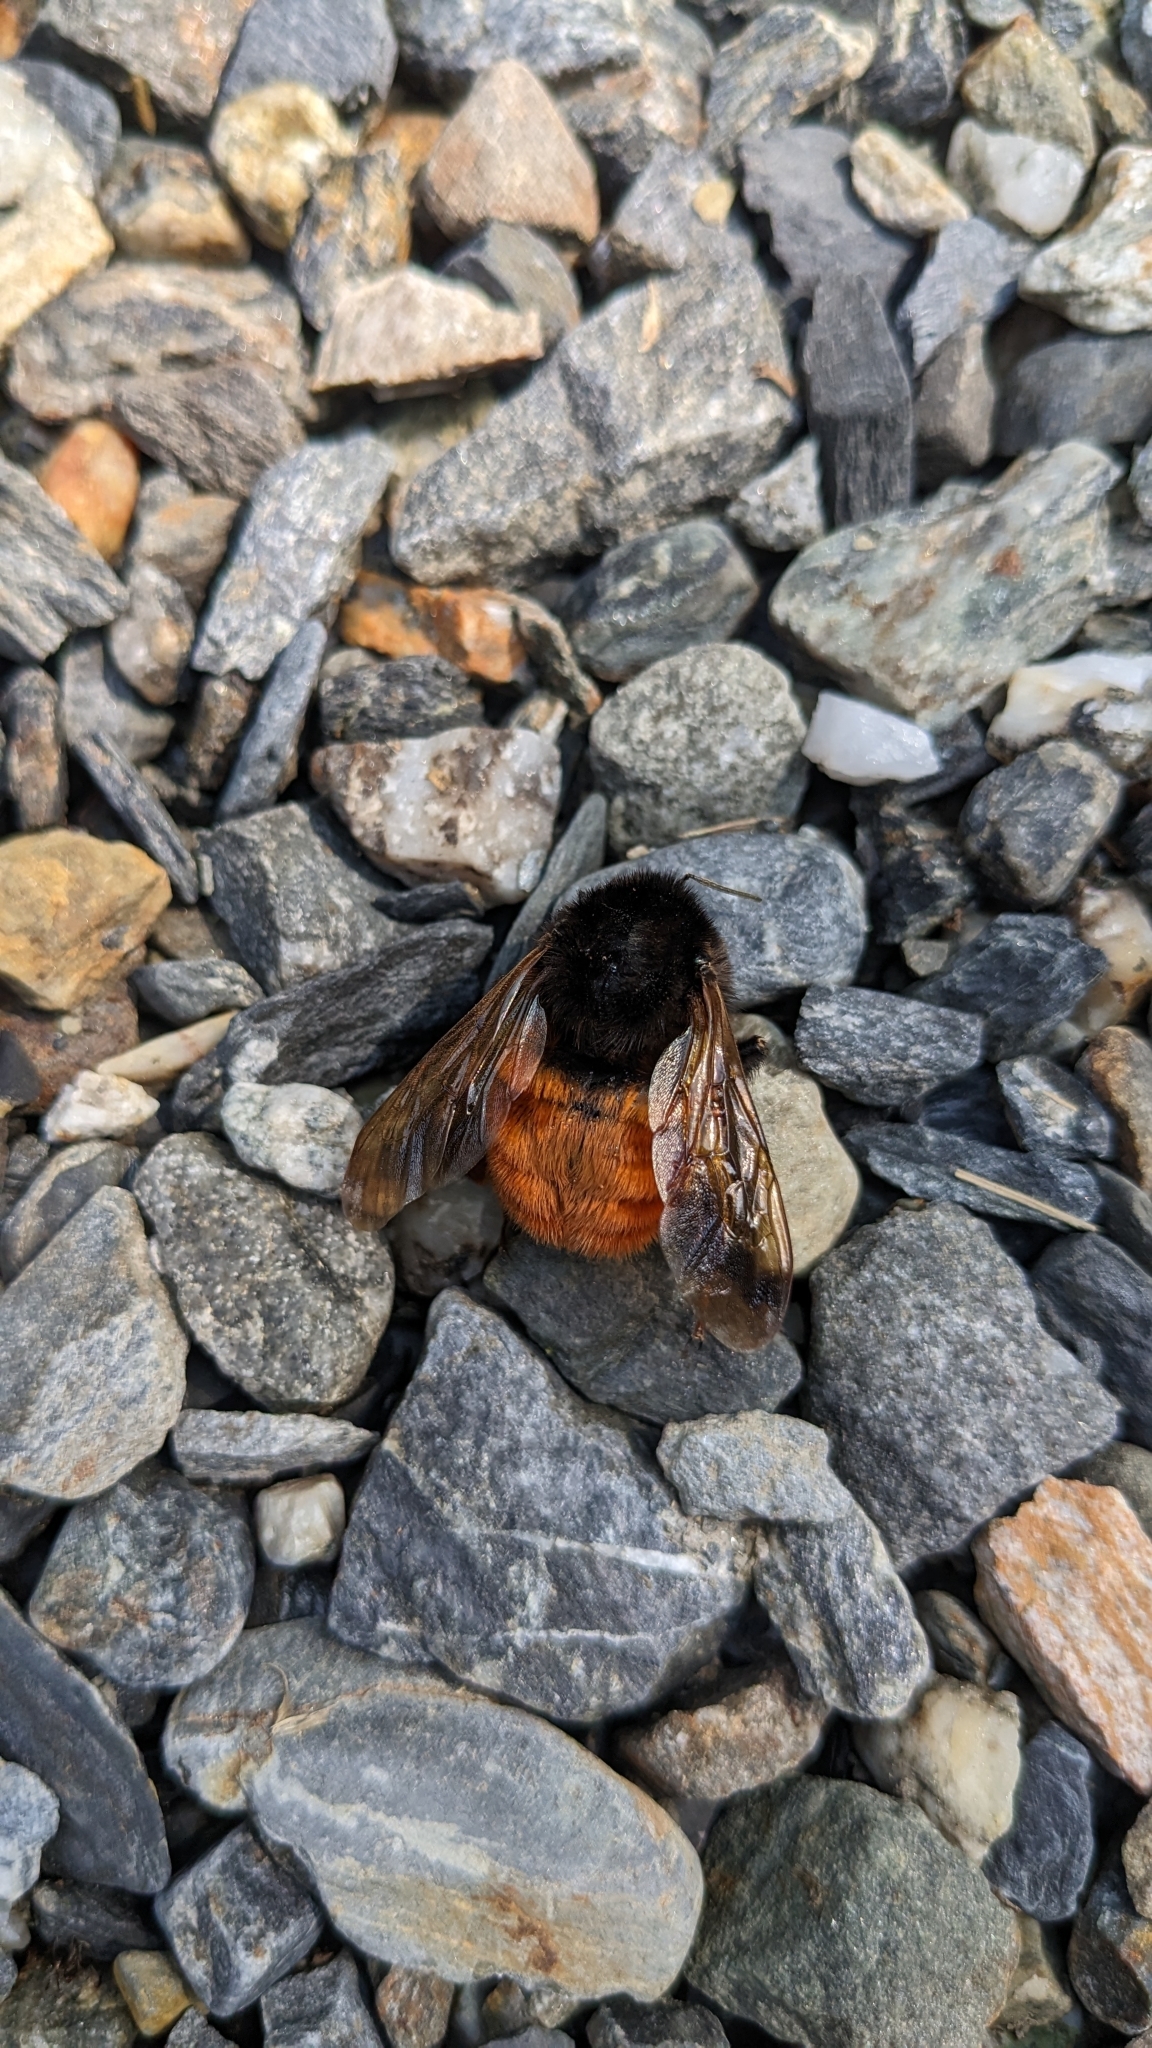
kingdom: Animalia
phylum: Arthropoda
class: Insecta
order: Hymenoptera
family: Apidae
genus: Bombus
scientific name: Bombus bicoloratus
